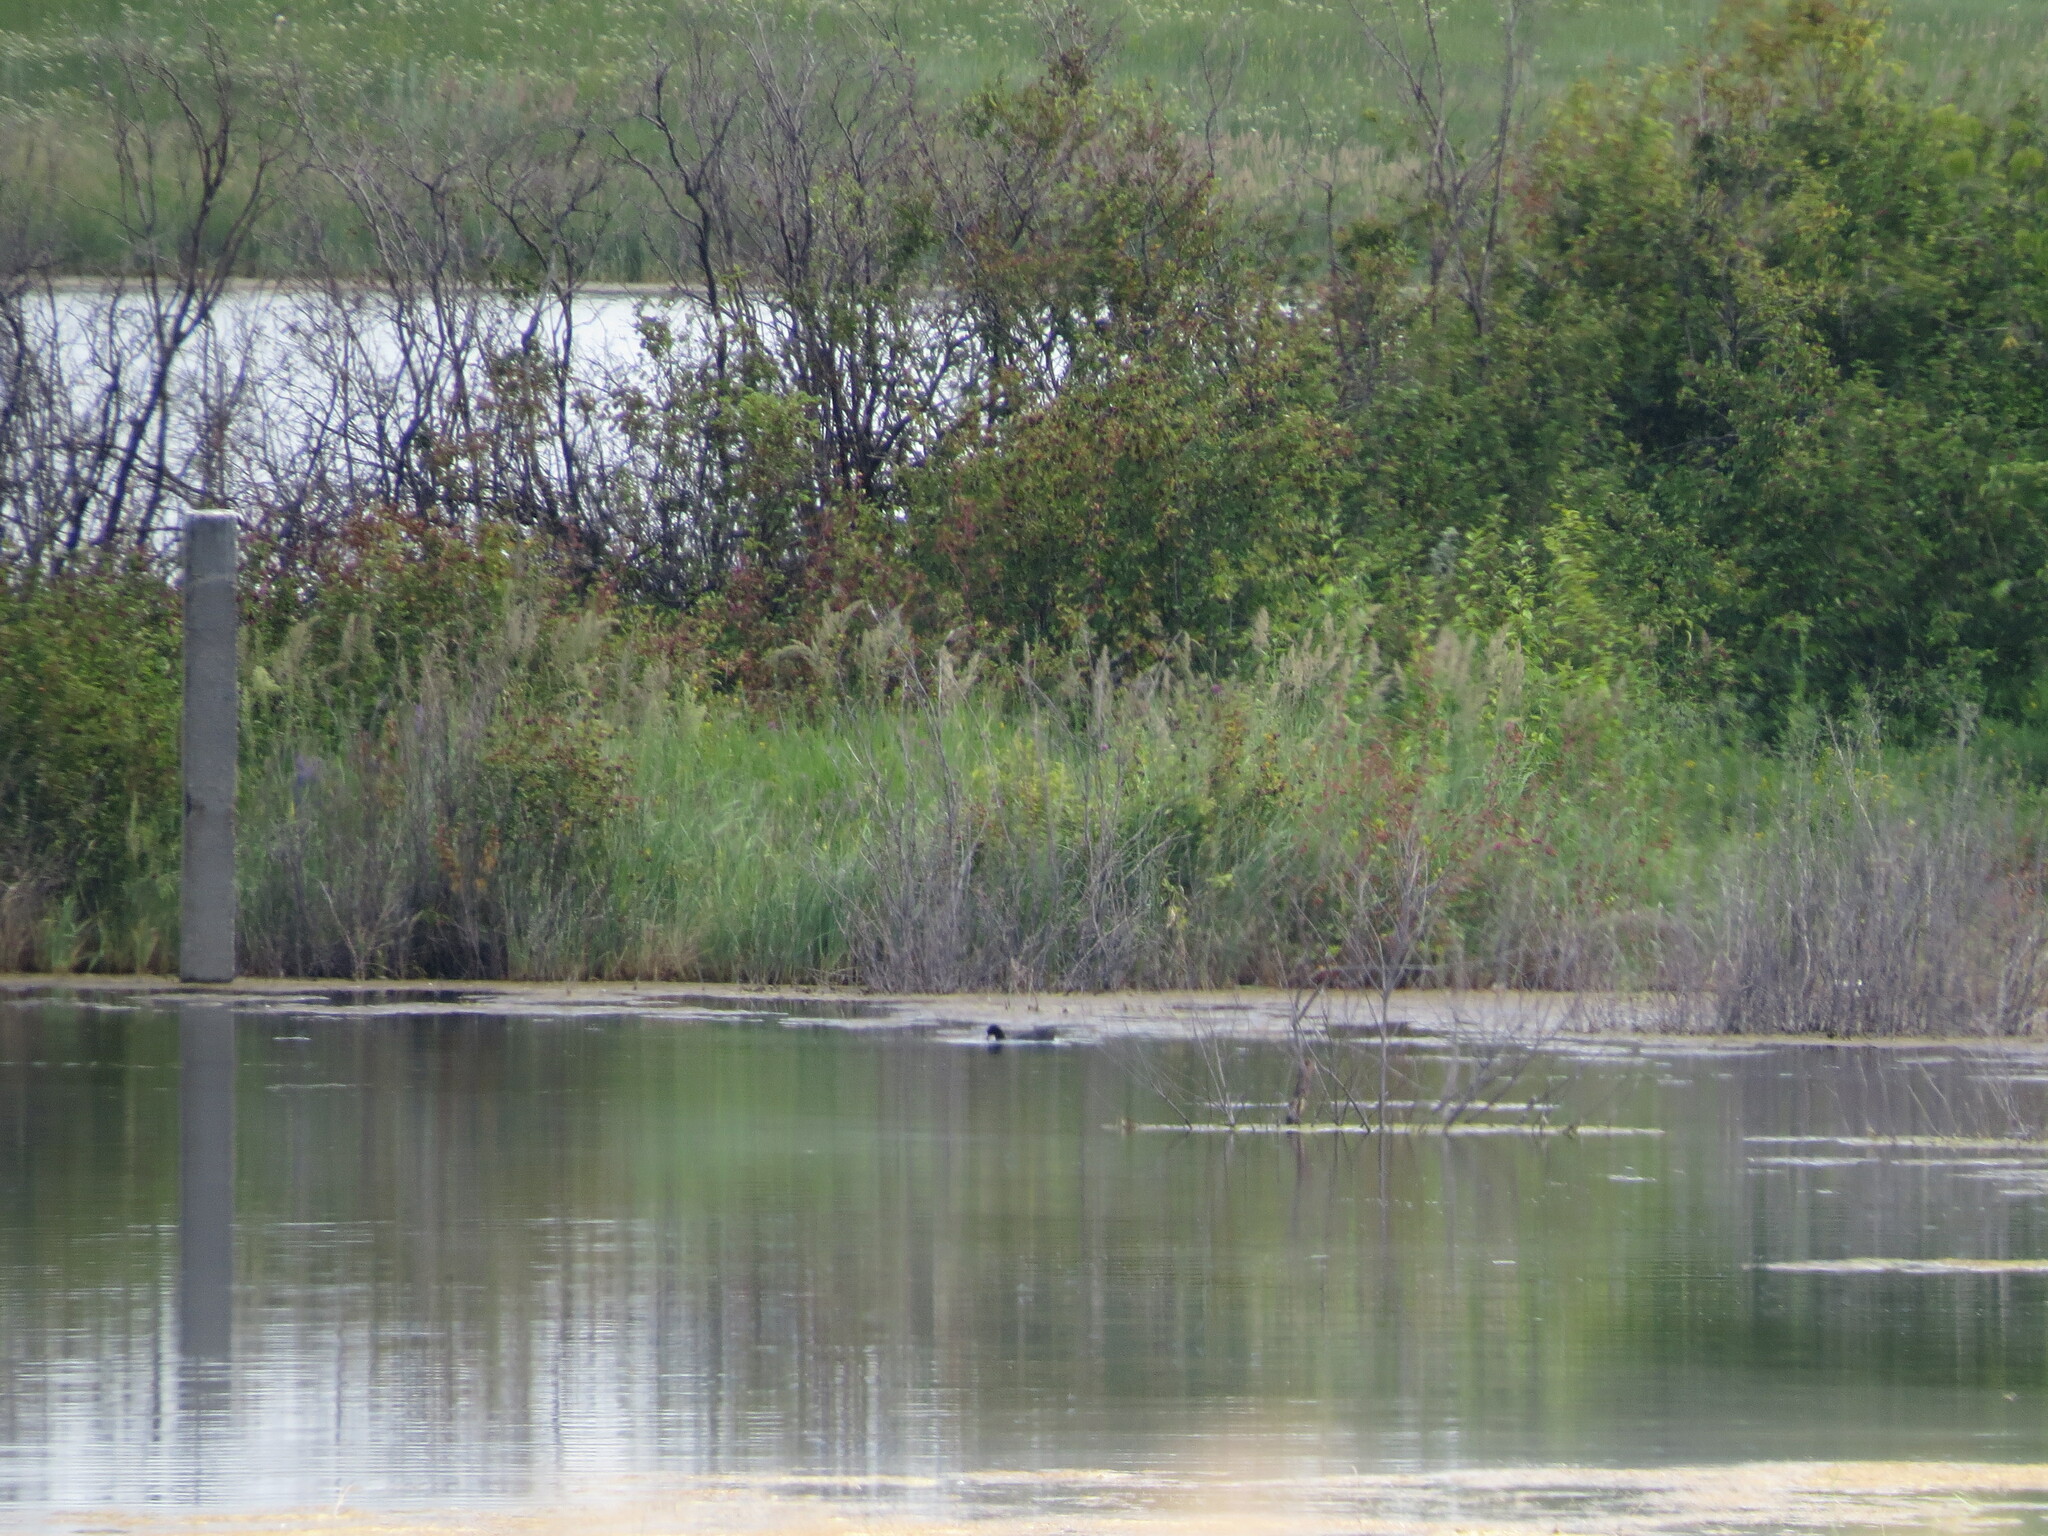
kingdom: Animalia
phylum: Chordata
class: Aves
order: Gruiformes
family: Rallidae
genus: Fulica
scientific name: Fulica atra
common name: Eurasian coot
